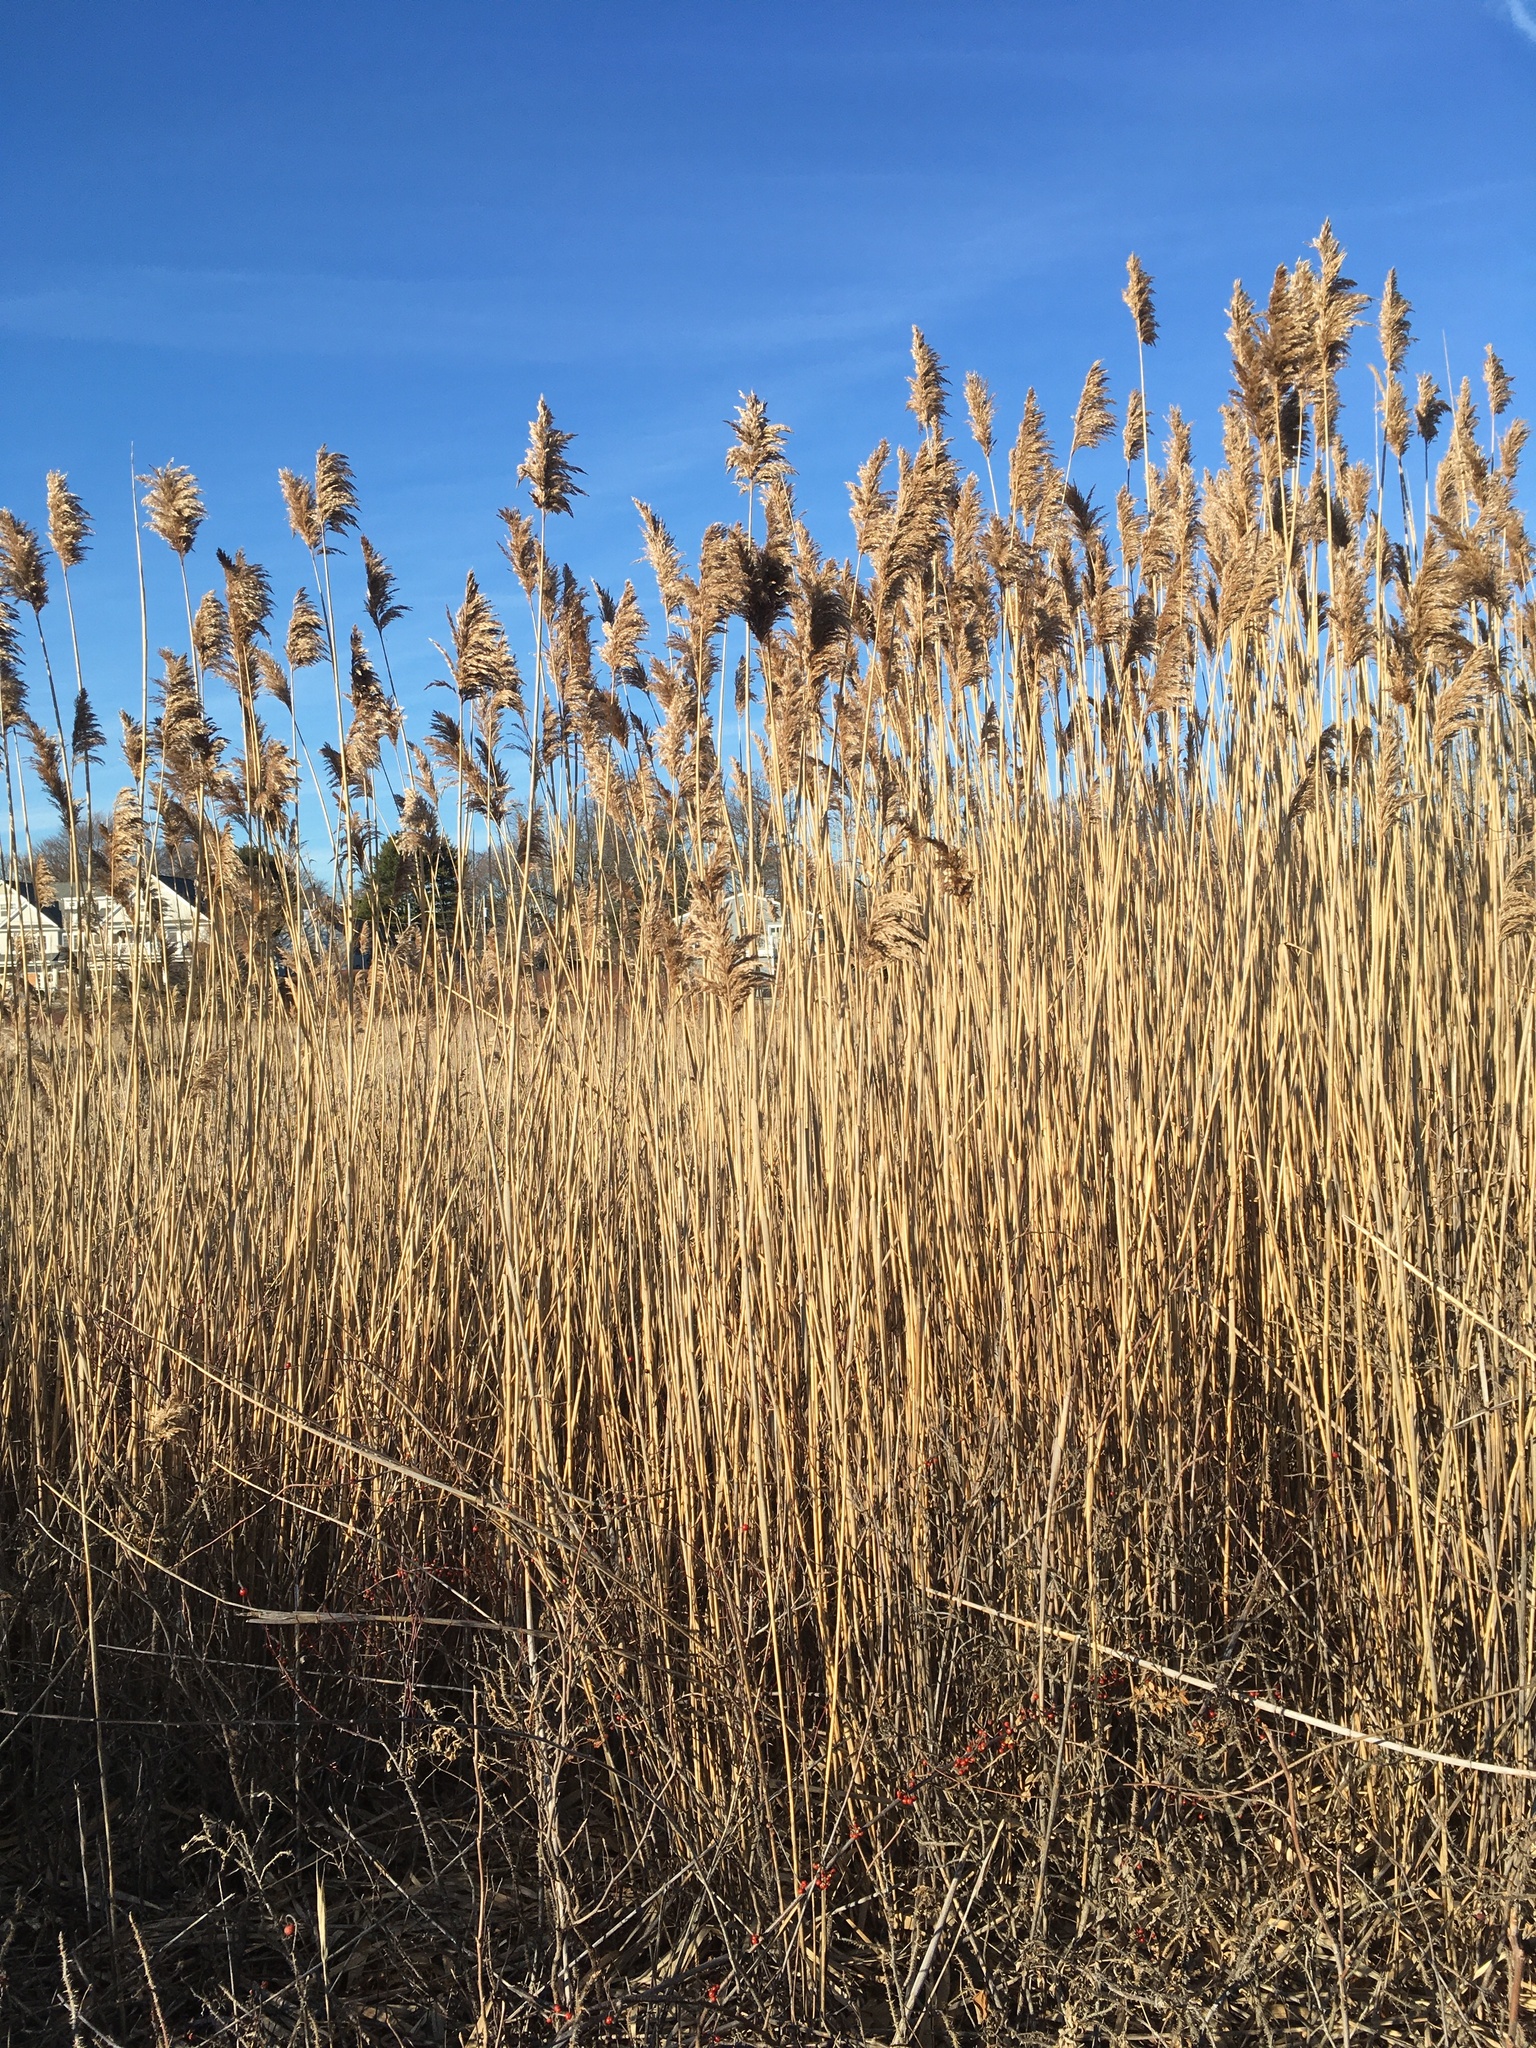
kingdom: Plantae
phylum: Tracheophyta
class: Liliopsida
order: Poales
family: Poaceae
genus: Phragmites
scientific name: Phragmites australis
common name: Common reed
